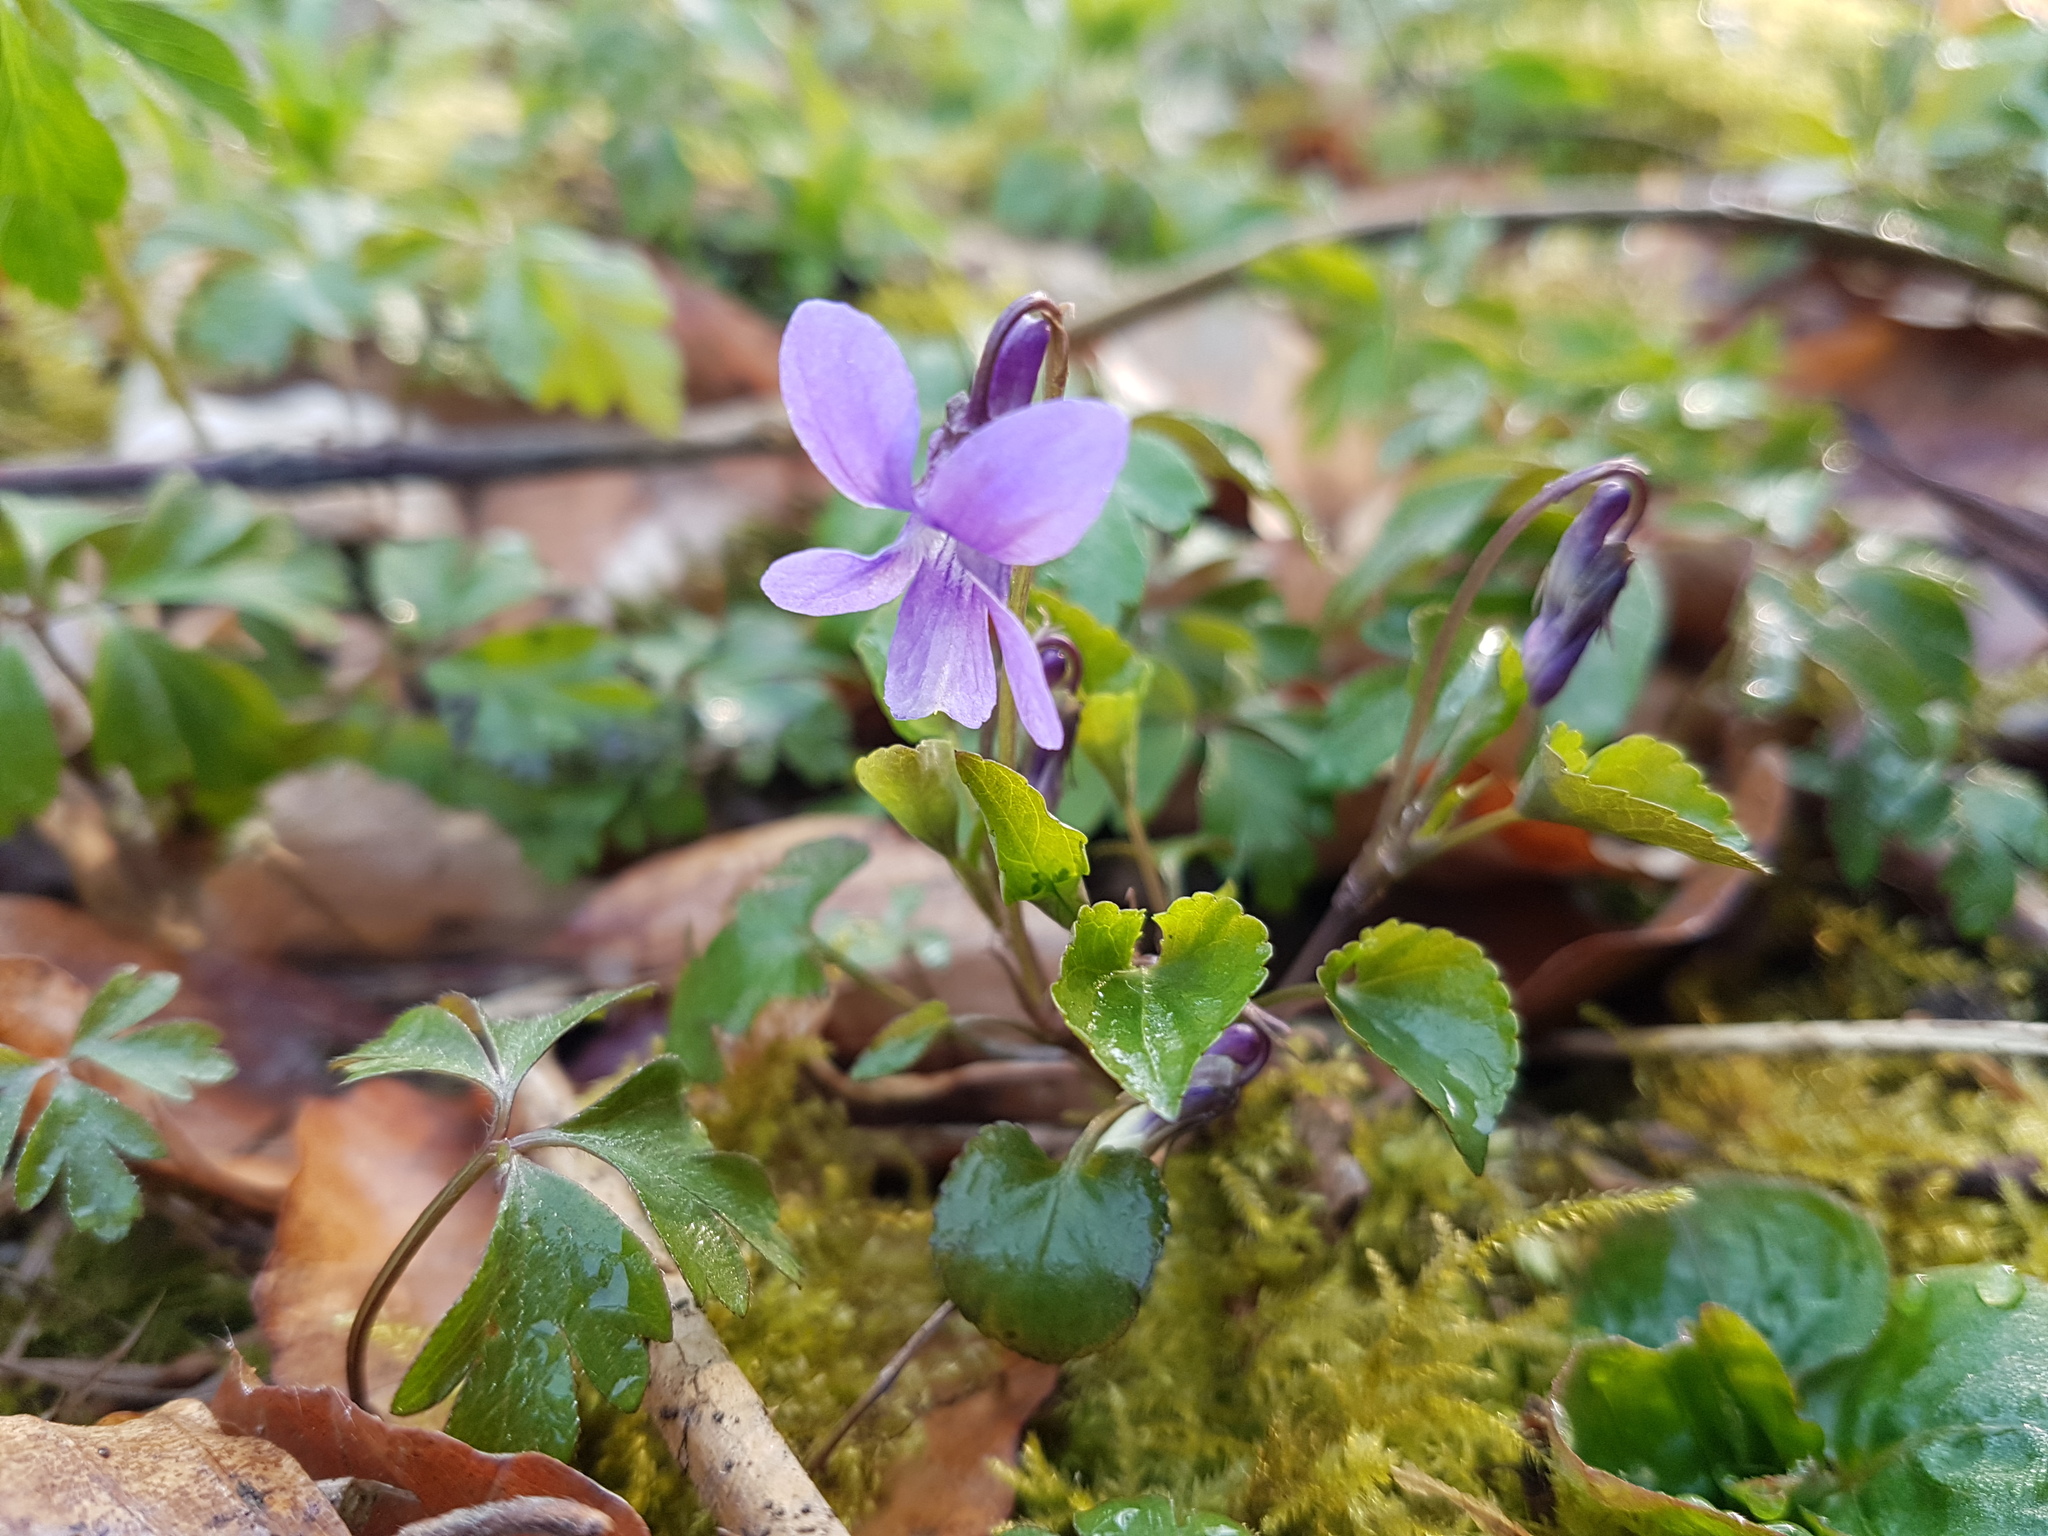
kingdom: Plantae
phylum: Tracheophyta
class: Magnoliopsida
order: Malpighiales
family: Violaceae
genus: Viola
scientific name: Viola reichenbachiana
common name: Early dog-violet
